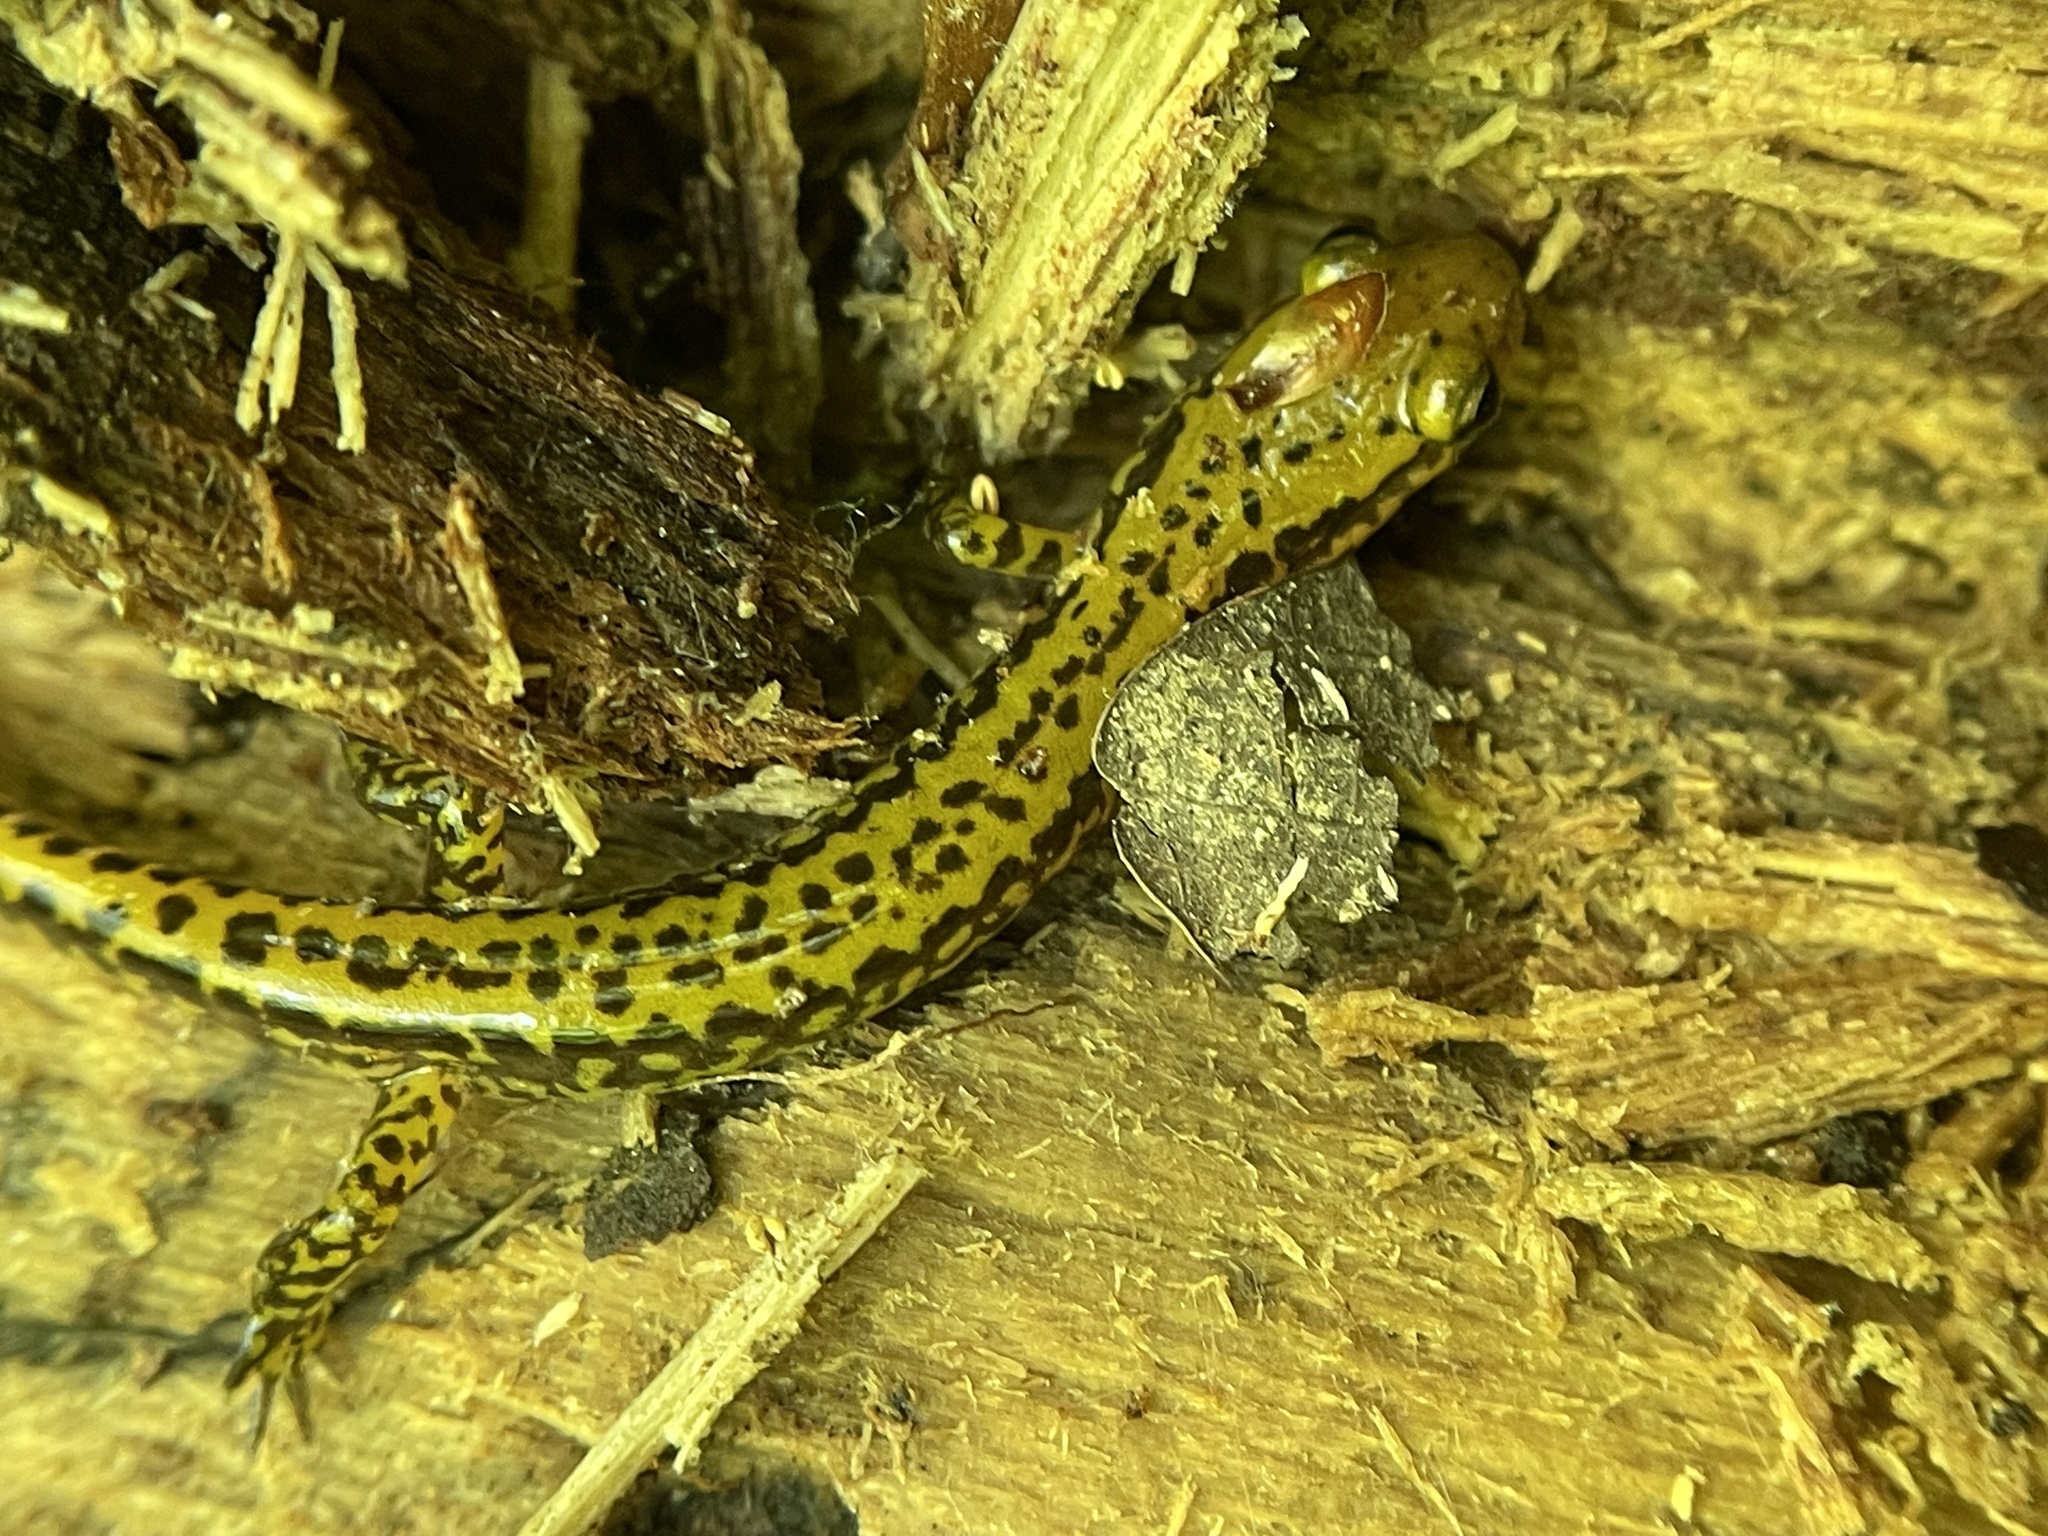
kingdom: Animalia
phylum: Chordata
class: Amphibia
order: Caudata
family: Plethodontidae
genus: Eurycea
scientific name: Eurycea longicauda
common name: Long-tailed salamander
